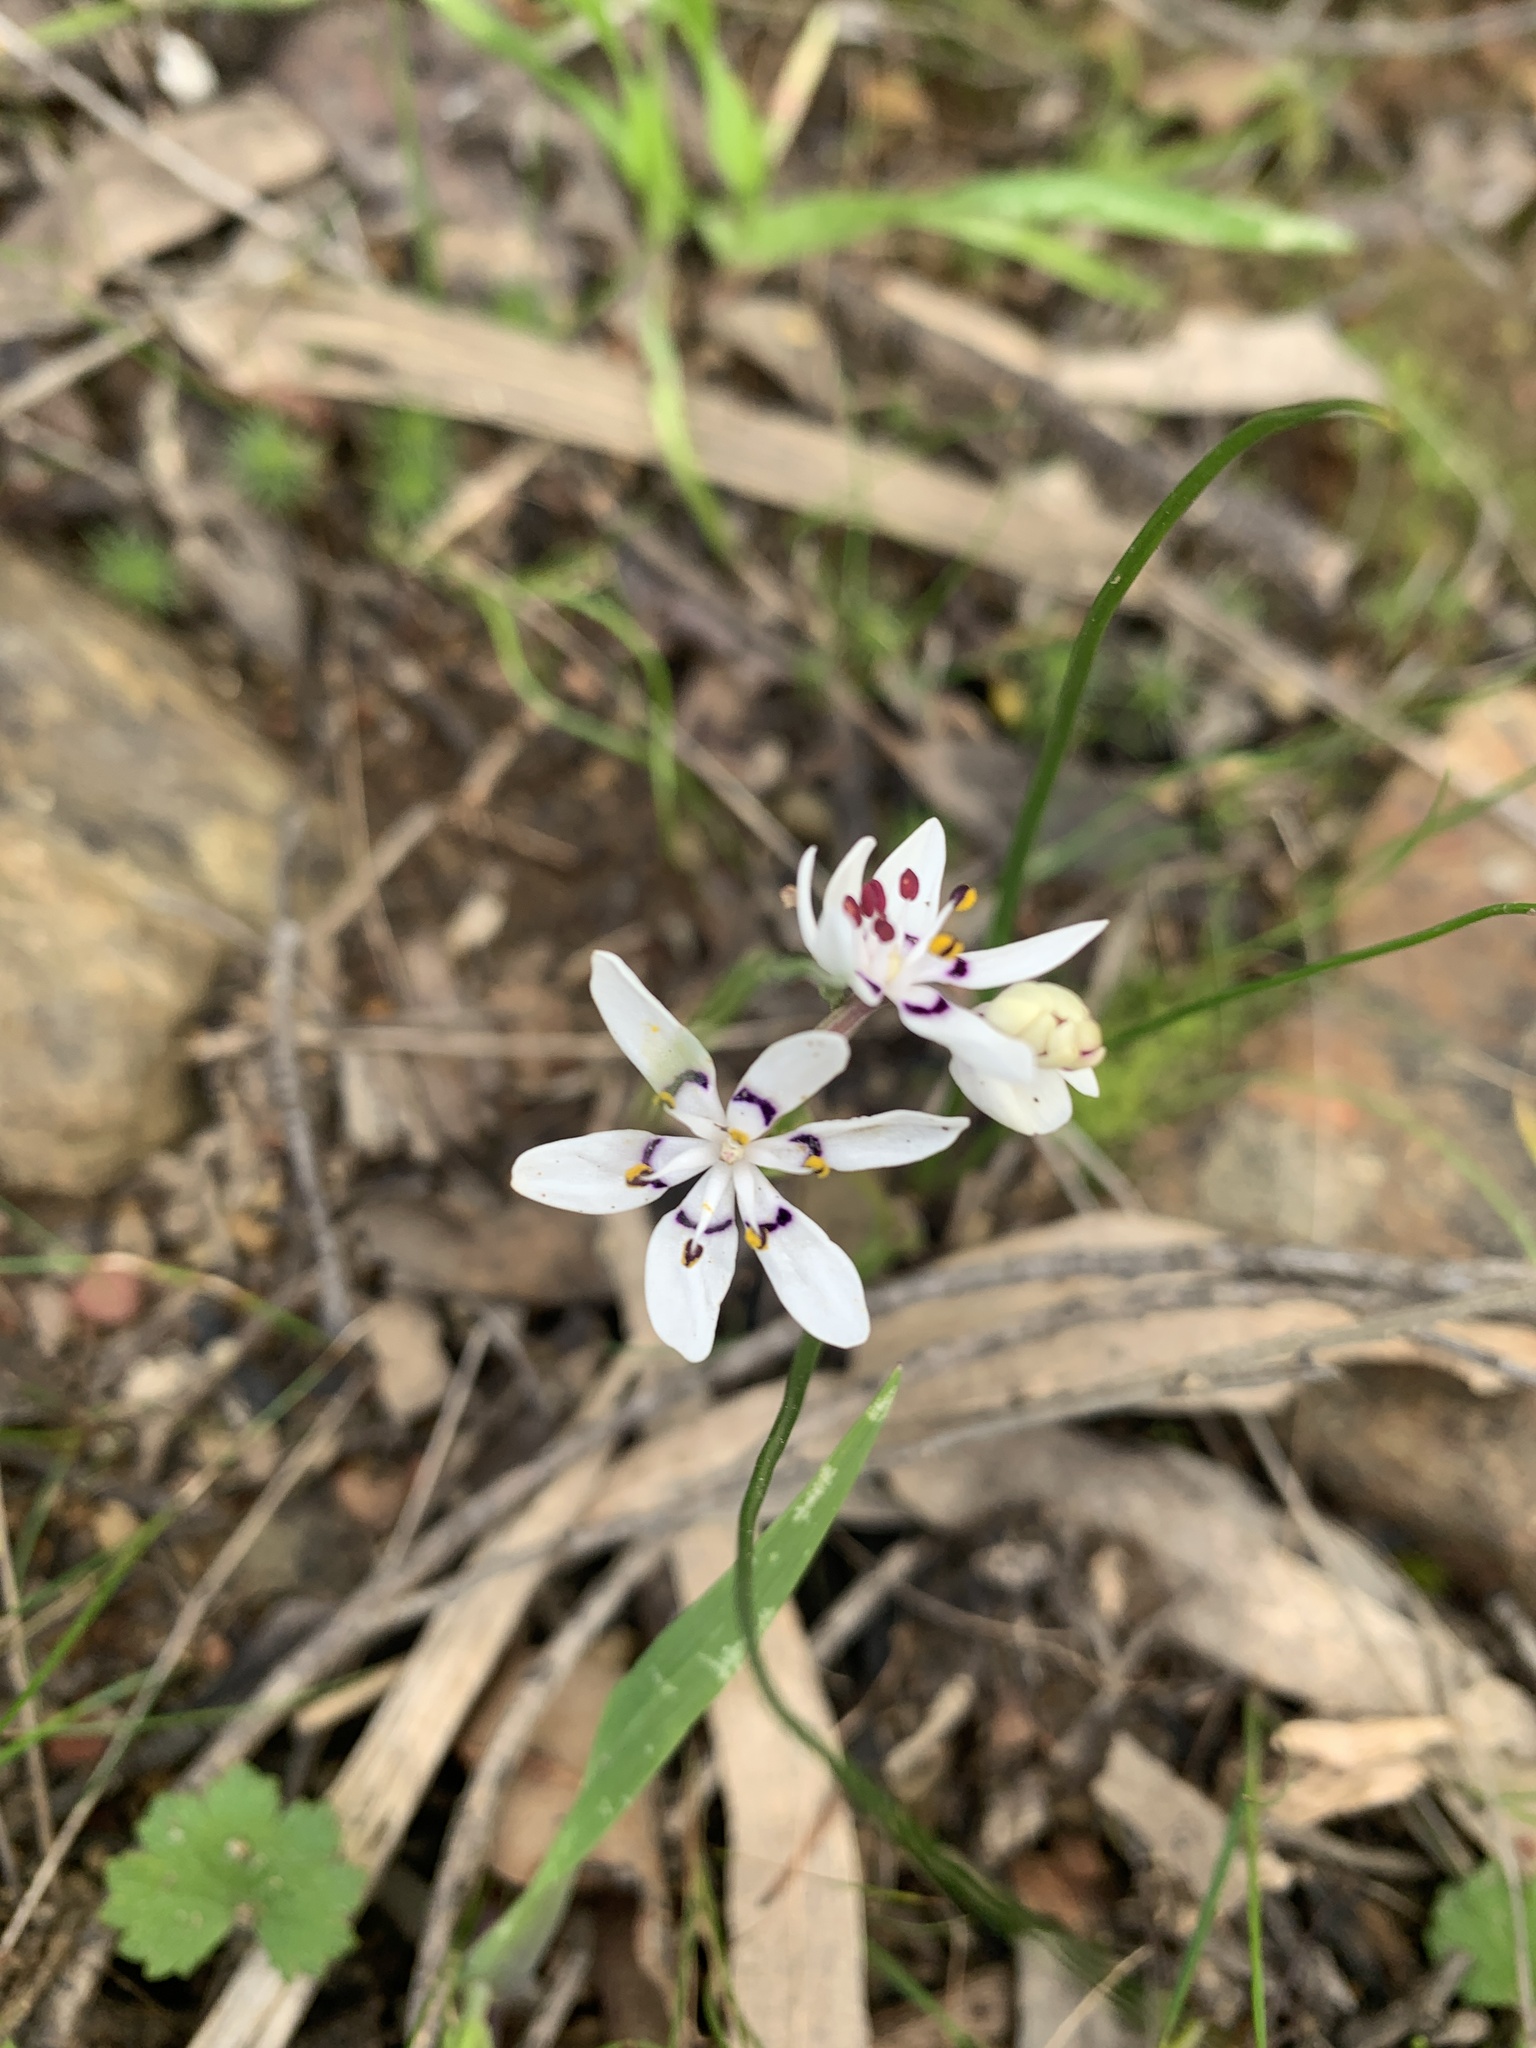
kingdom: Plantae
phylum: Tracheophyta
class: Liliopsida
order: Liliales
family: Colchicaceae
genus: Wurmbea
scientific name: Wurmbea dioica
